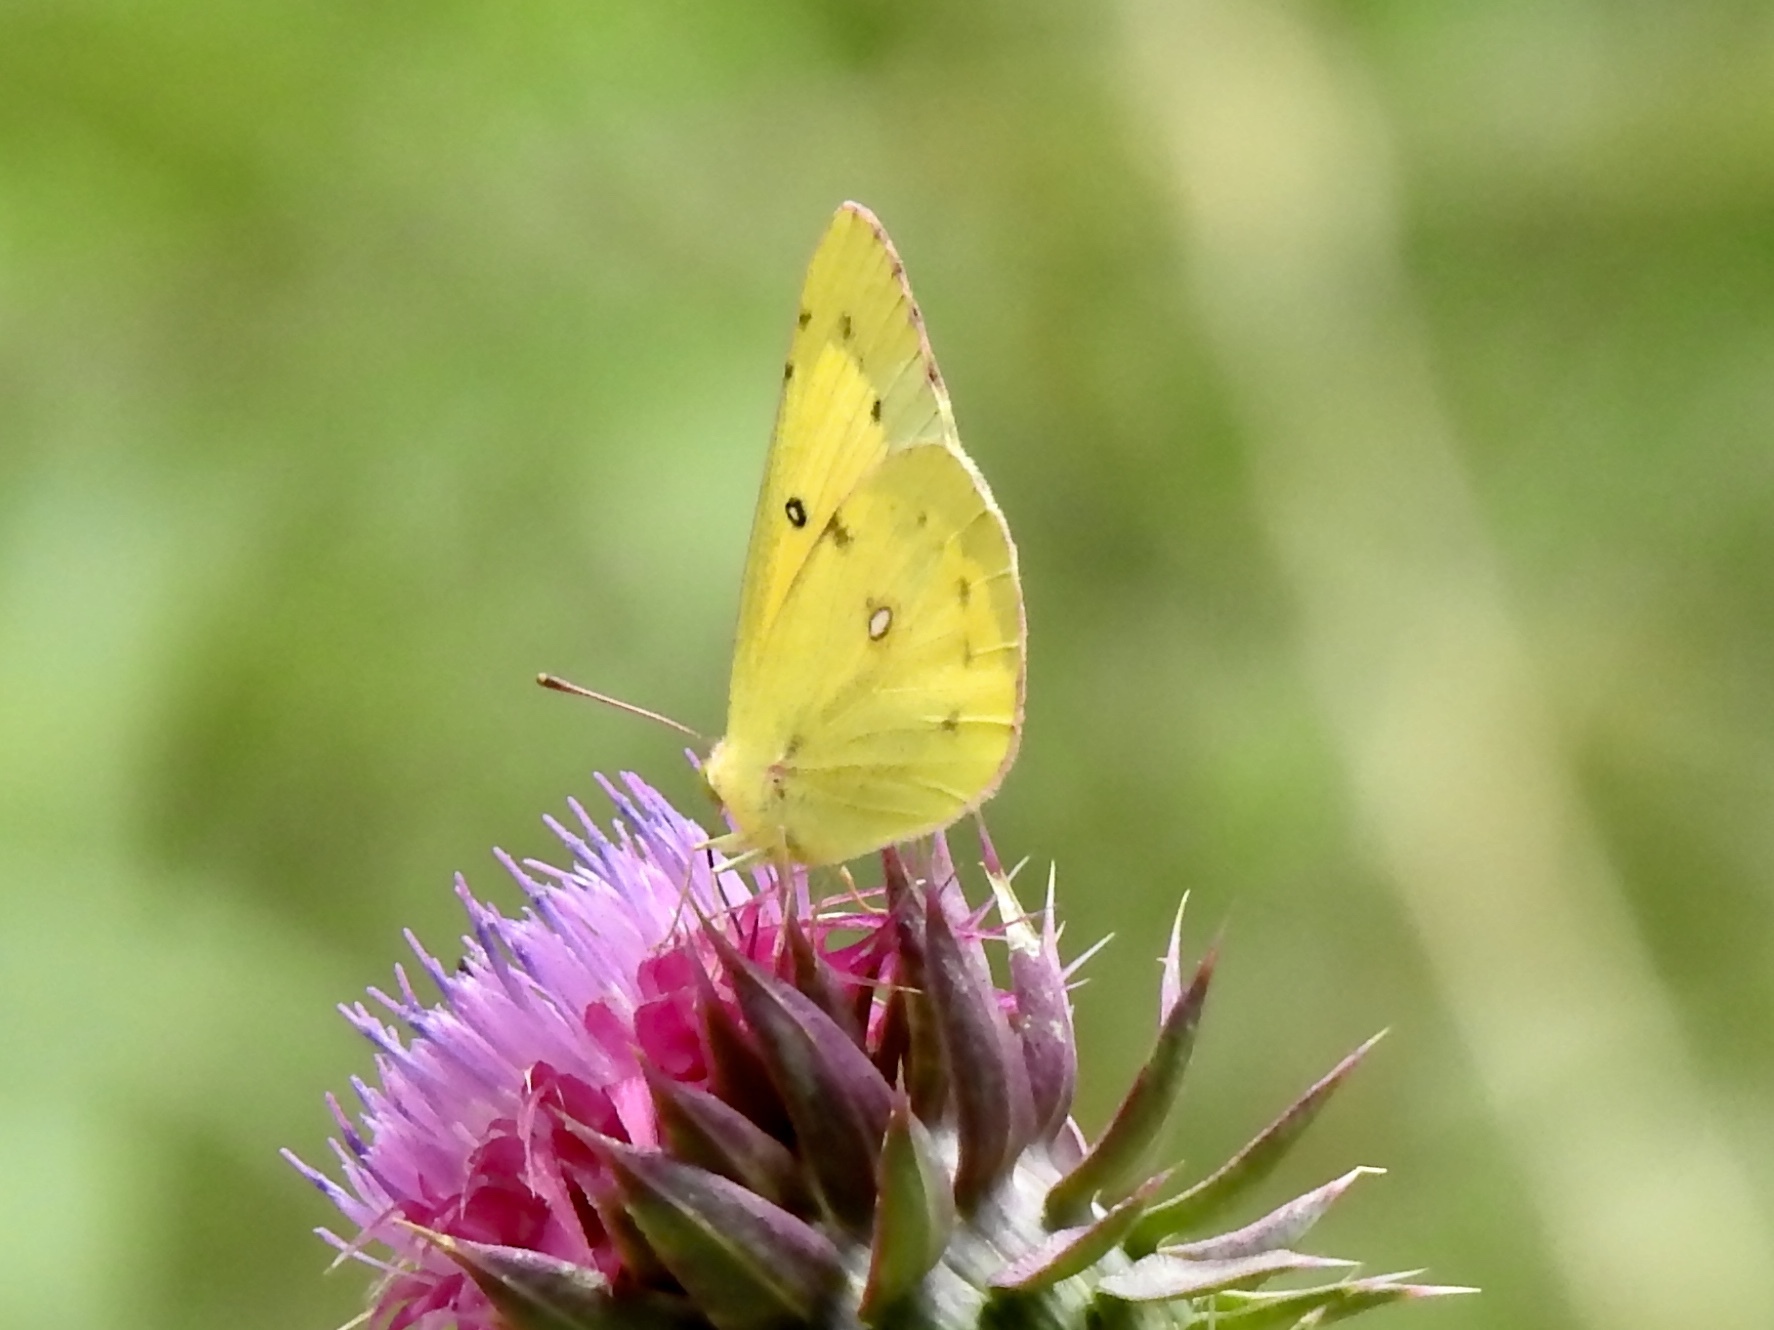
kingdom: Animalia
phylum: Arthropoda
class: Insecta
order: Lepidoptera
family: Pieridae
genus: Colias
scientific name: Colias eurytheme
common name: Alfalfa butterfly
